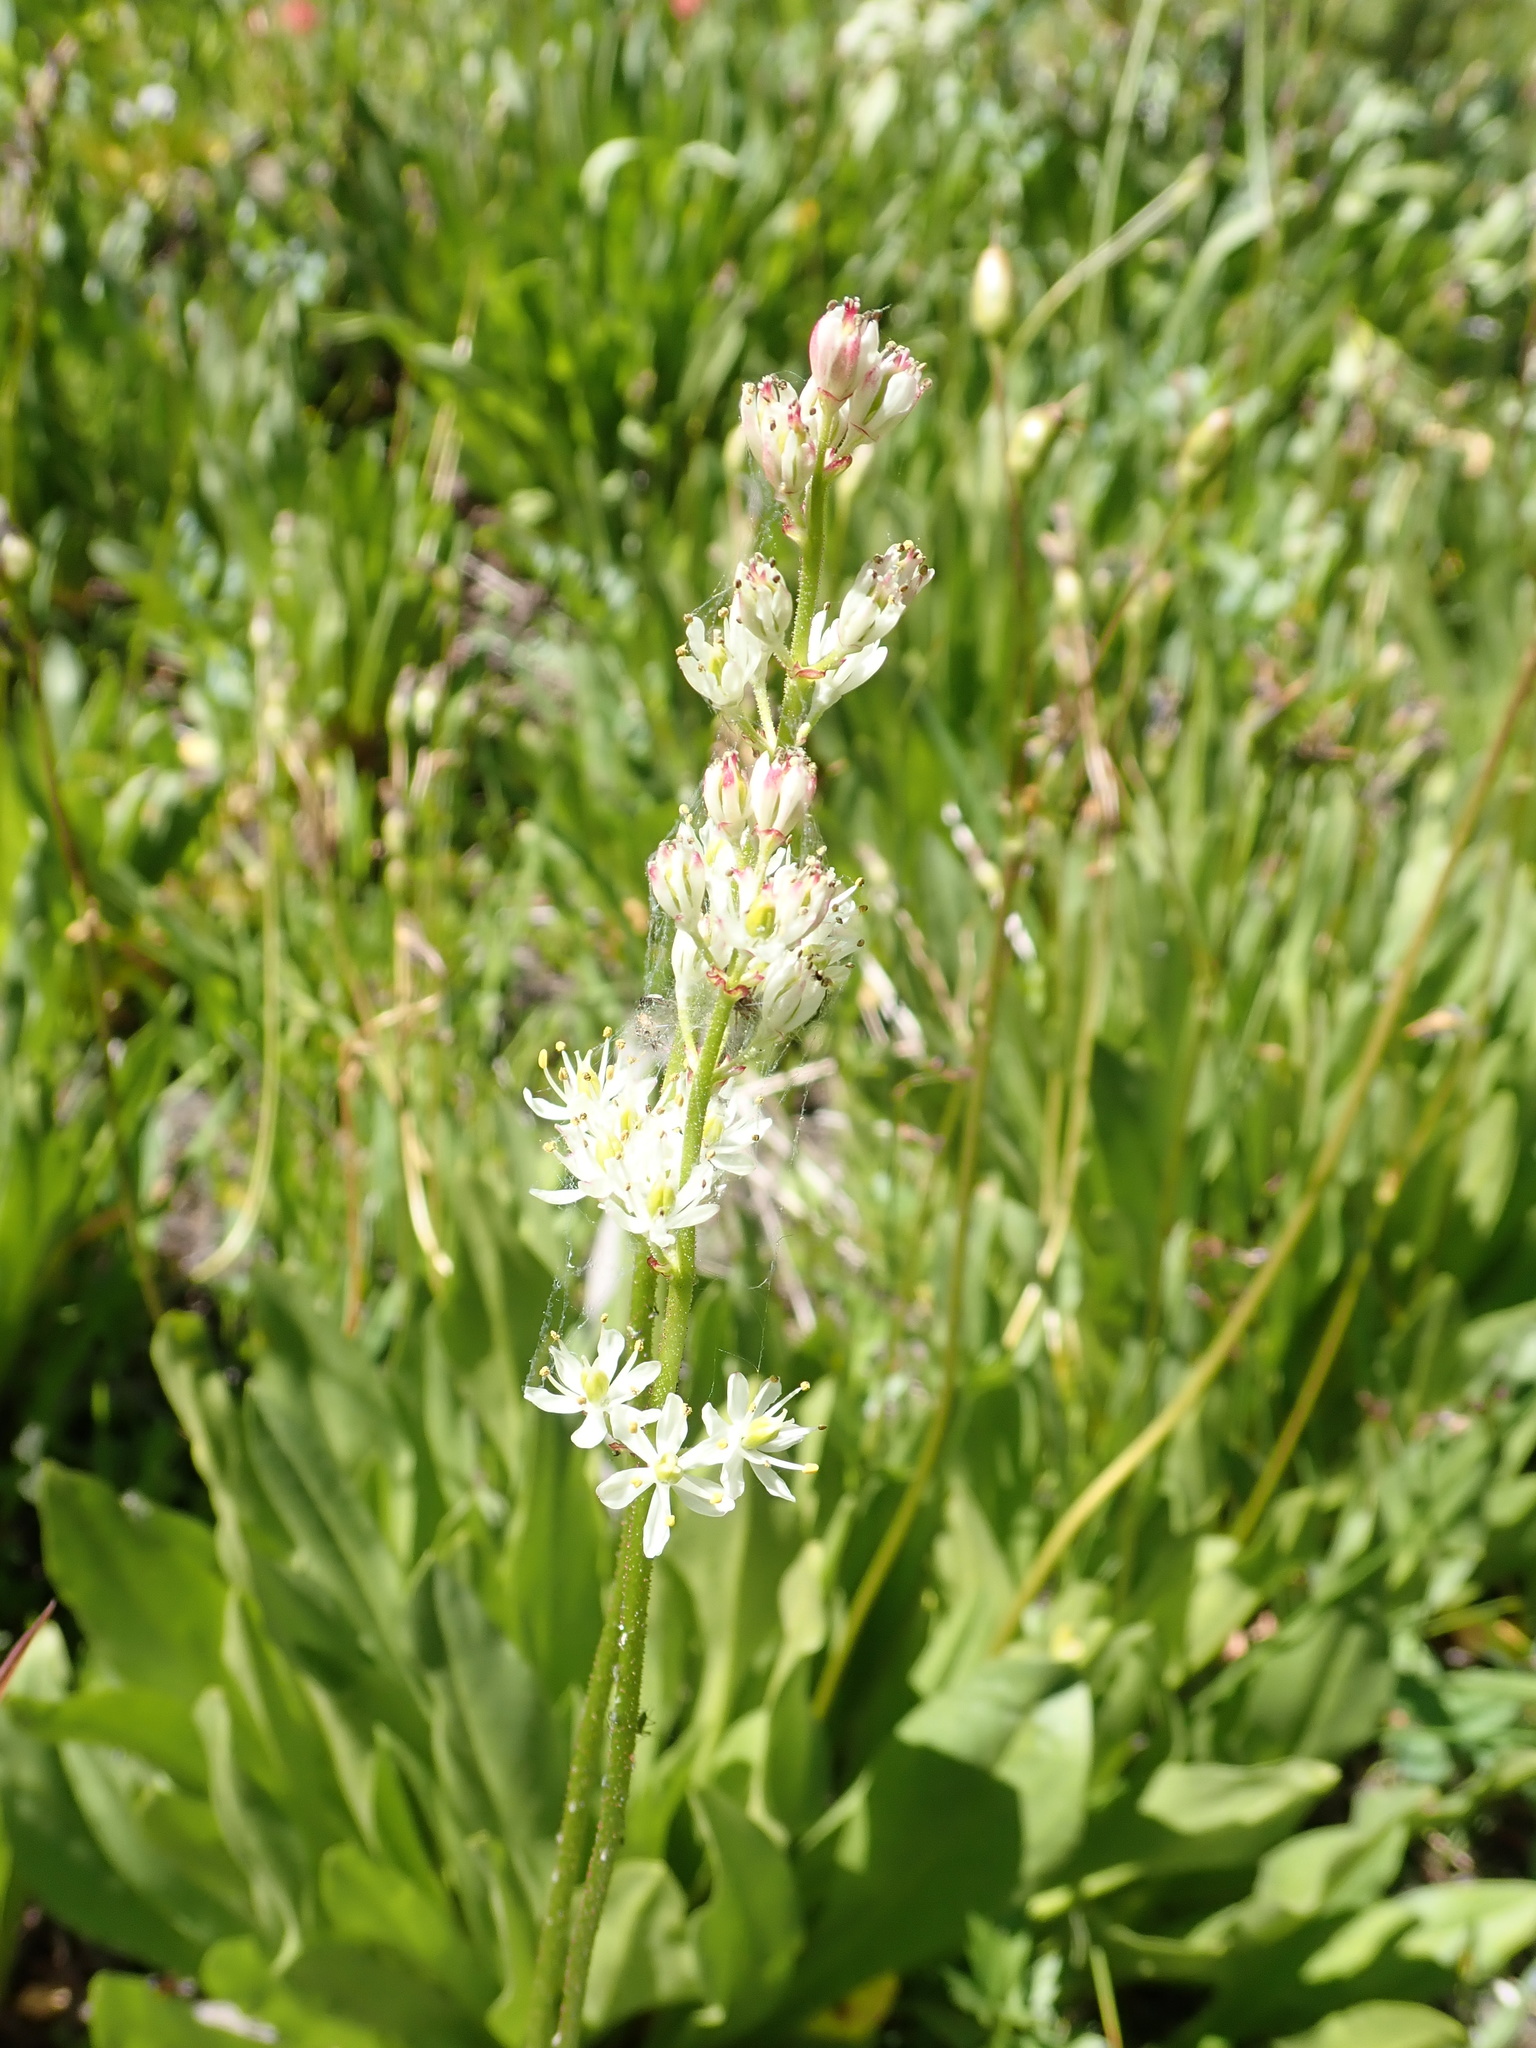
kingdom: Plantae
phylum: Tracheophyta
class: Liliopsida
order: Alismatales
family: Tofieldiaceae
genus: Triantha
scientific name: Triantha occidentalis
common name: Western false asphodel
